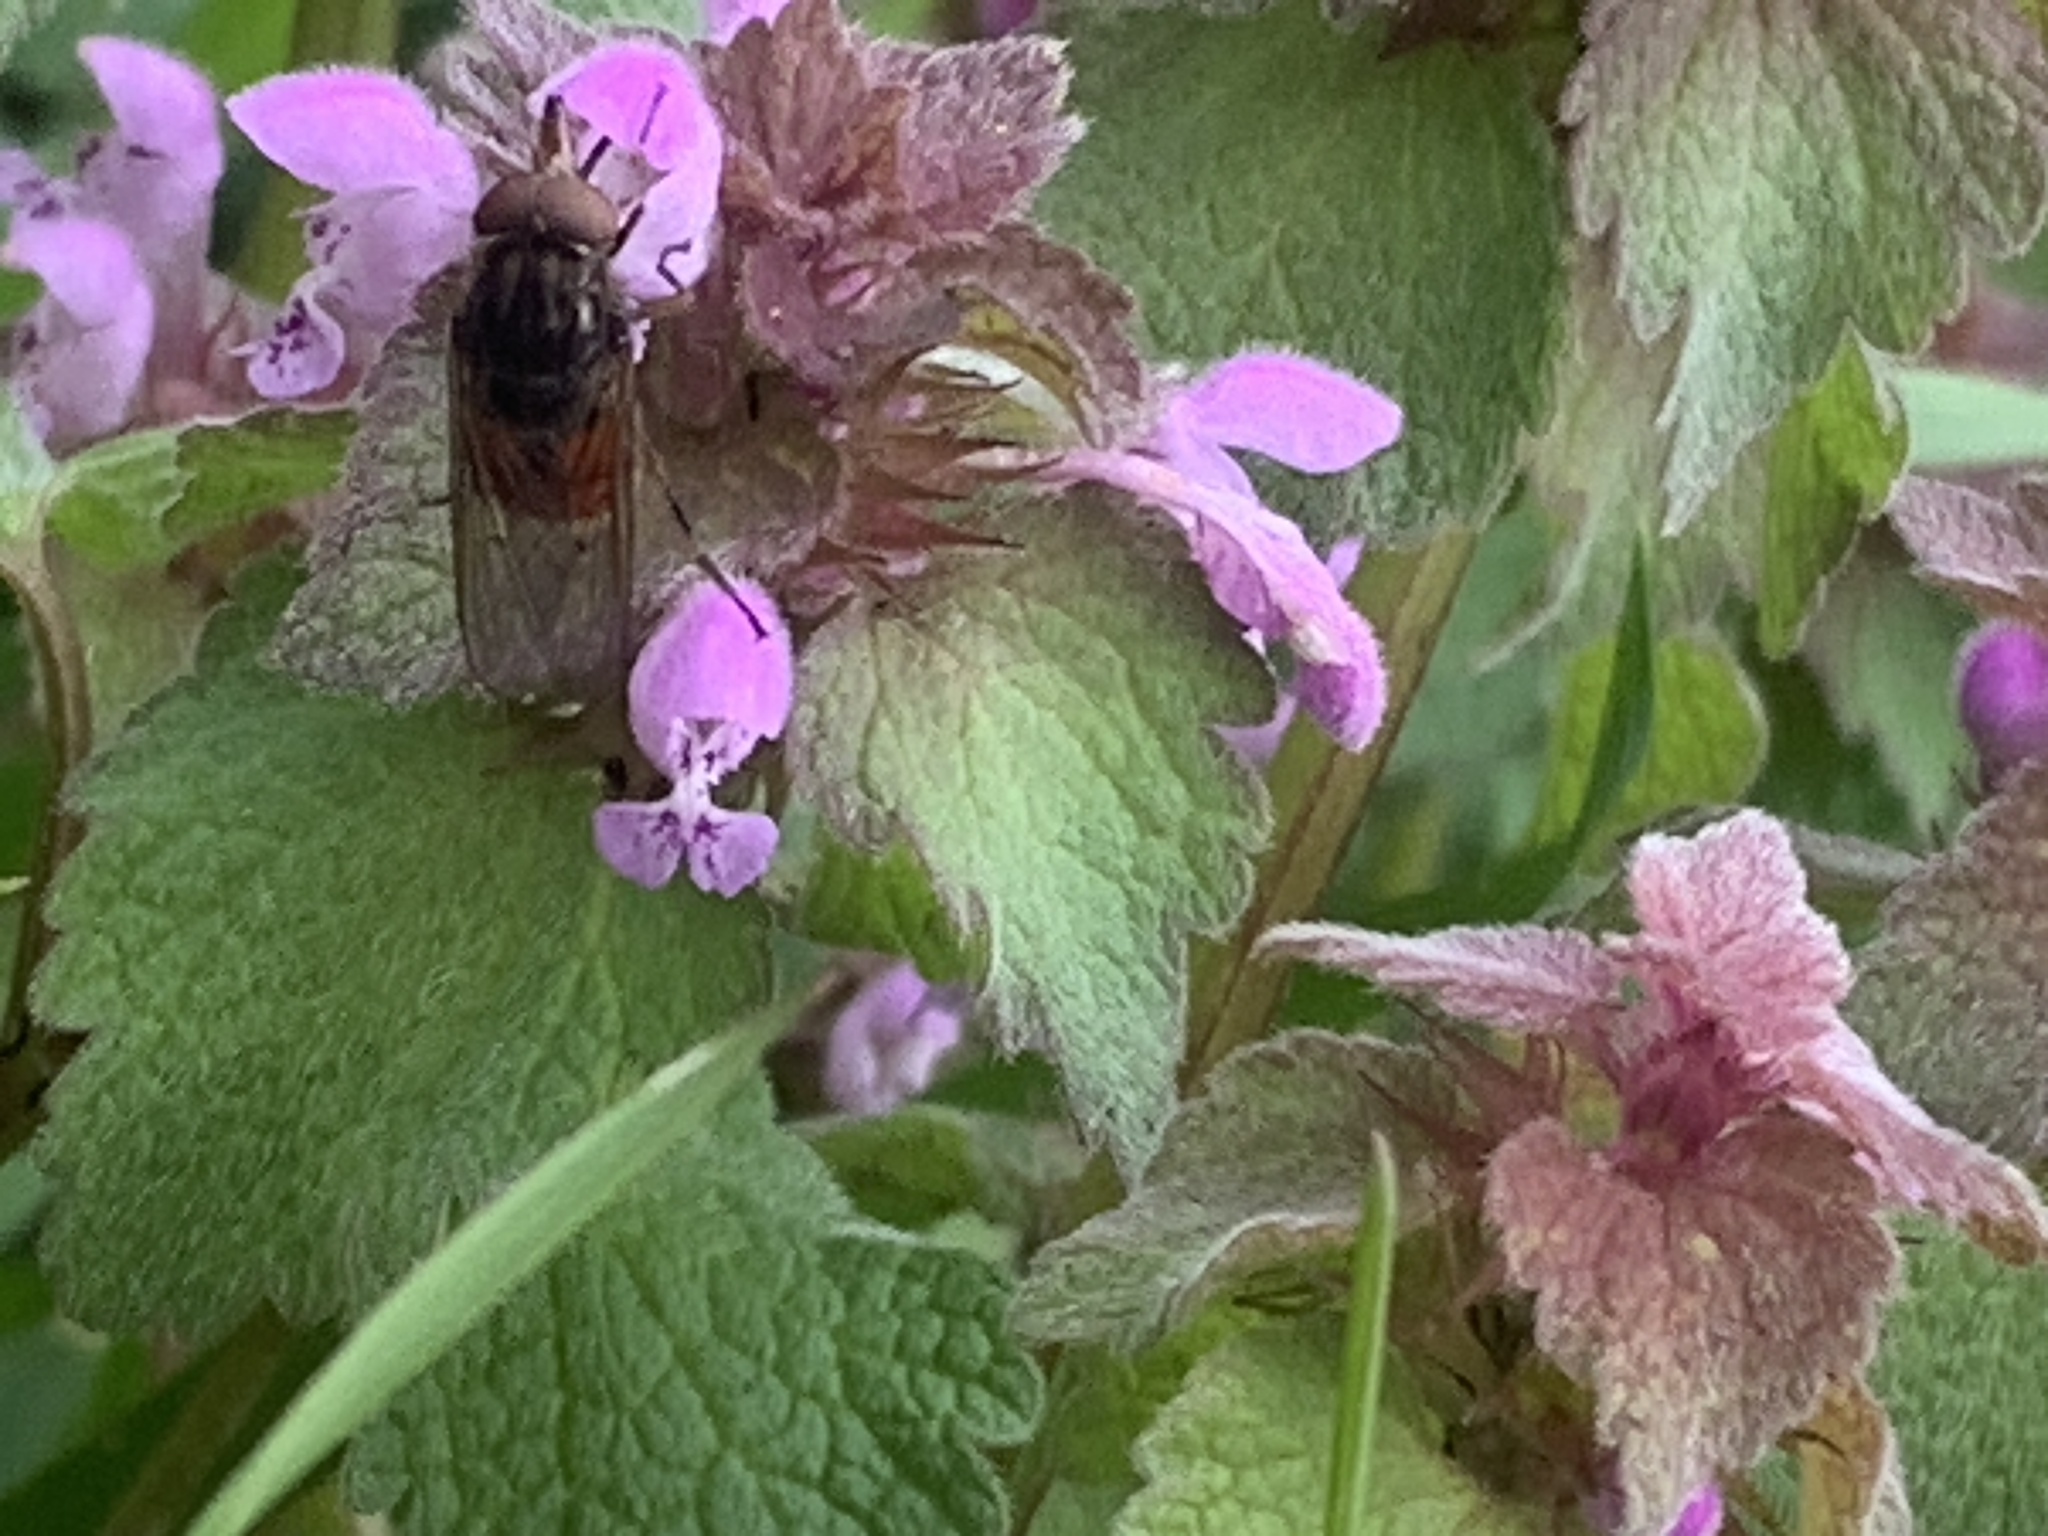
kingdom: Plantae
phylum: Tracheophyta
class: Magnoliopsida
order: Lamiales
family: Lamiaceae
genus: Lamium
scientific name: Lamium purpureum
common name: Red dead-nettle
